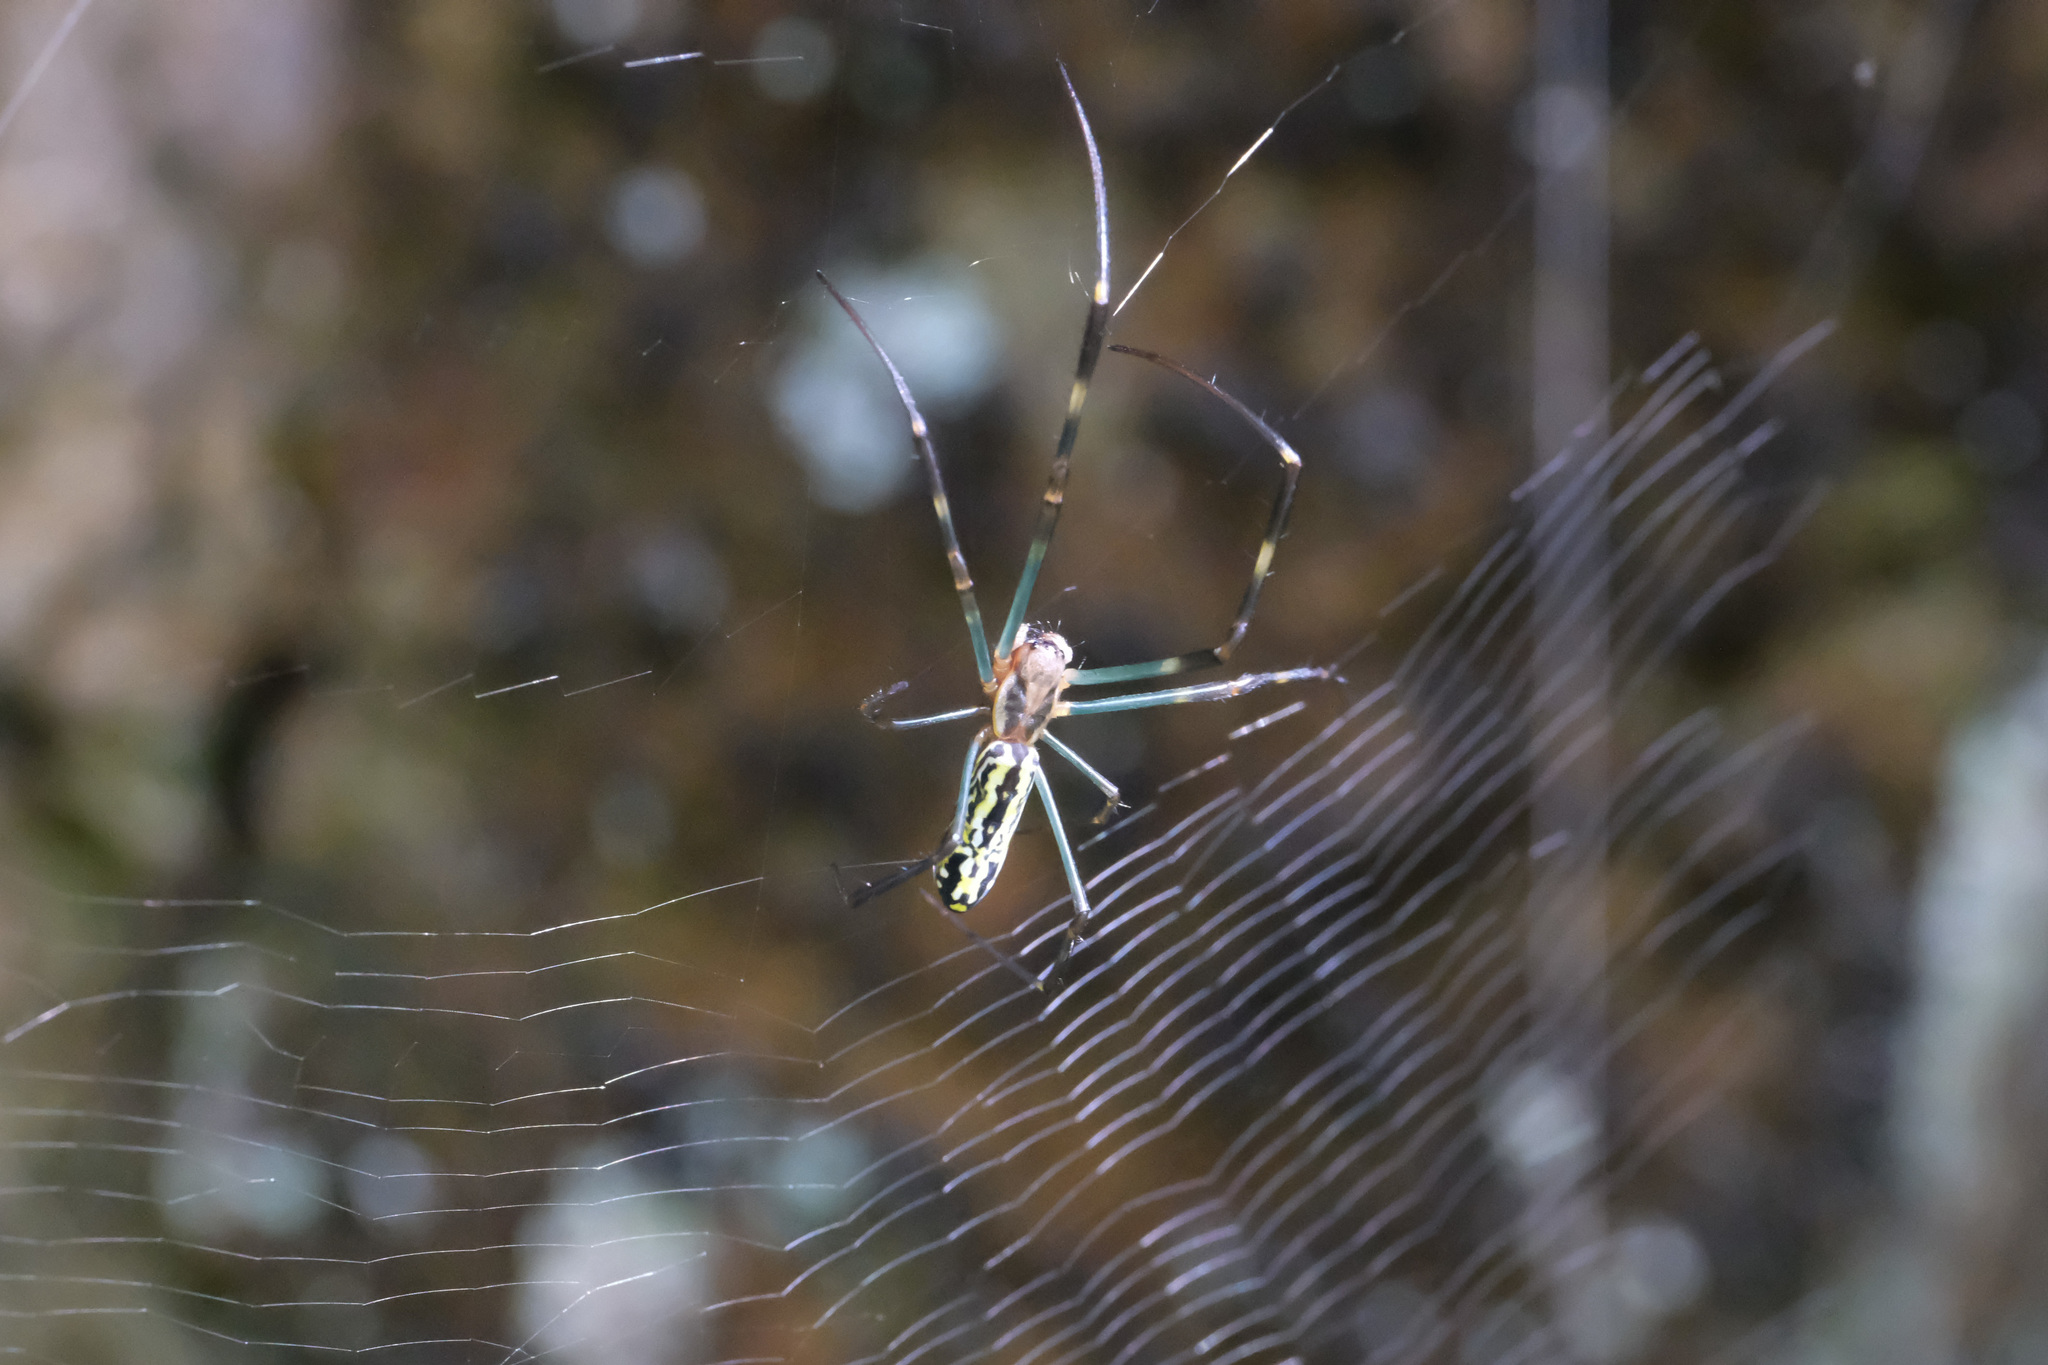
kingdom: Animalia
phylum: Arthropoda
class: Arachnida
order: Araneae
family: Araneidae
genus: Trichonephila
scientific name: Trichonephila clavata
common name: Jorō spider
